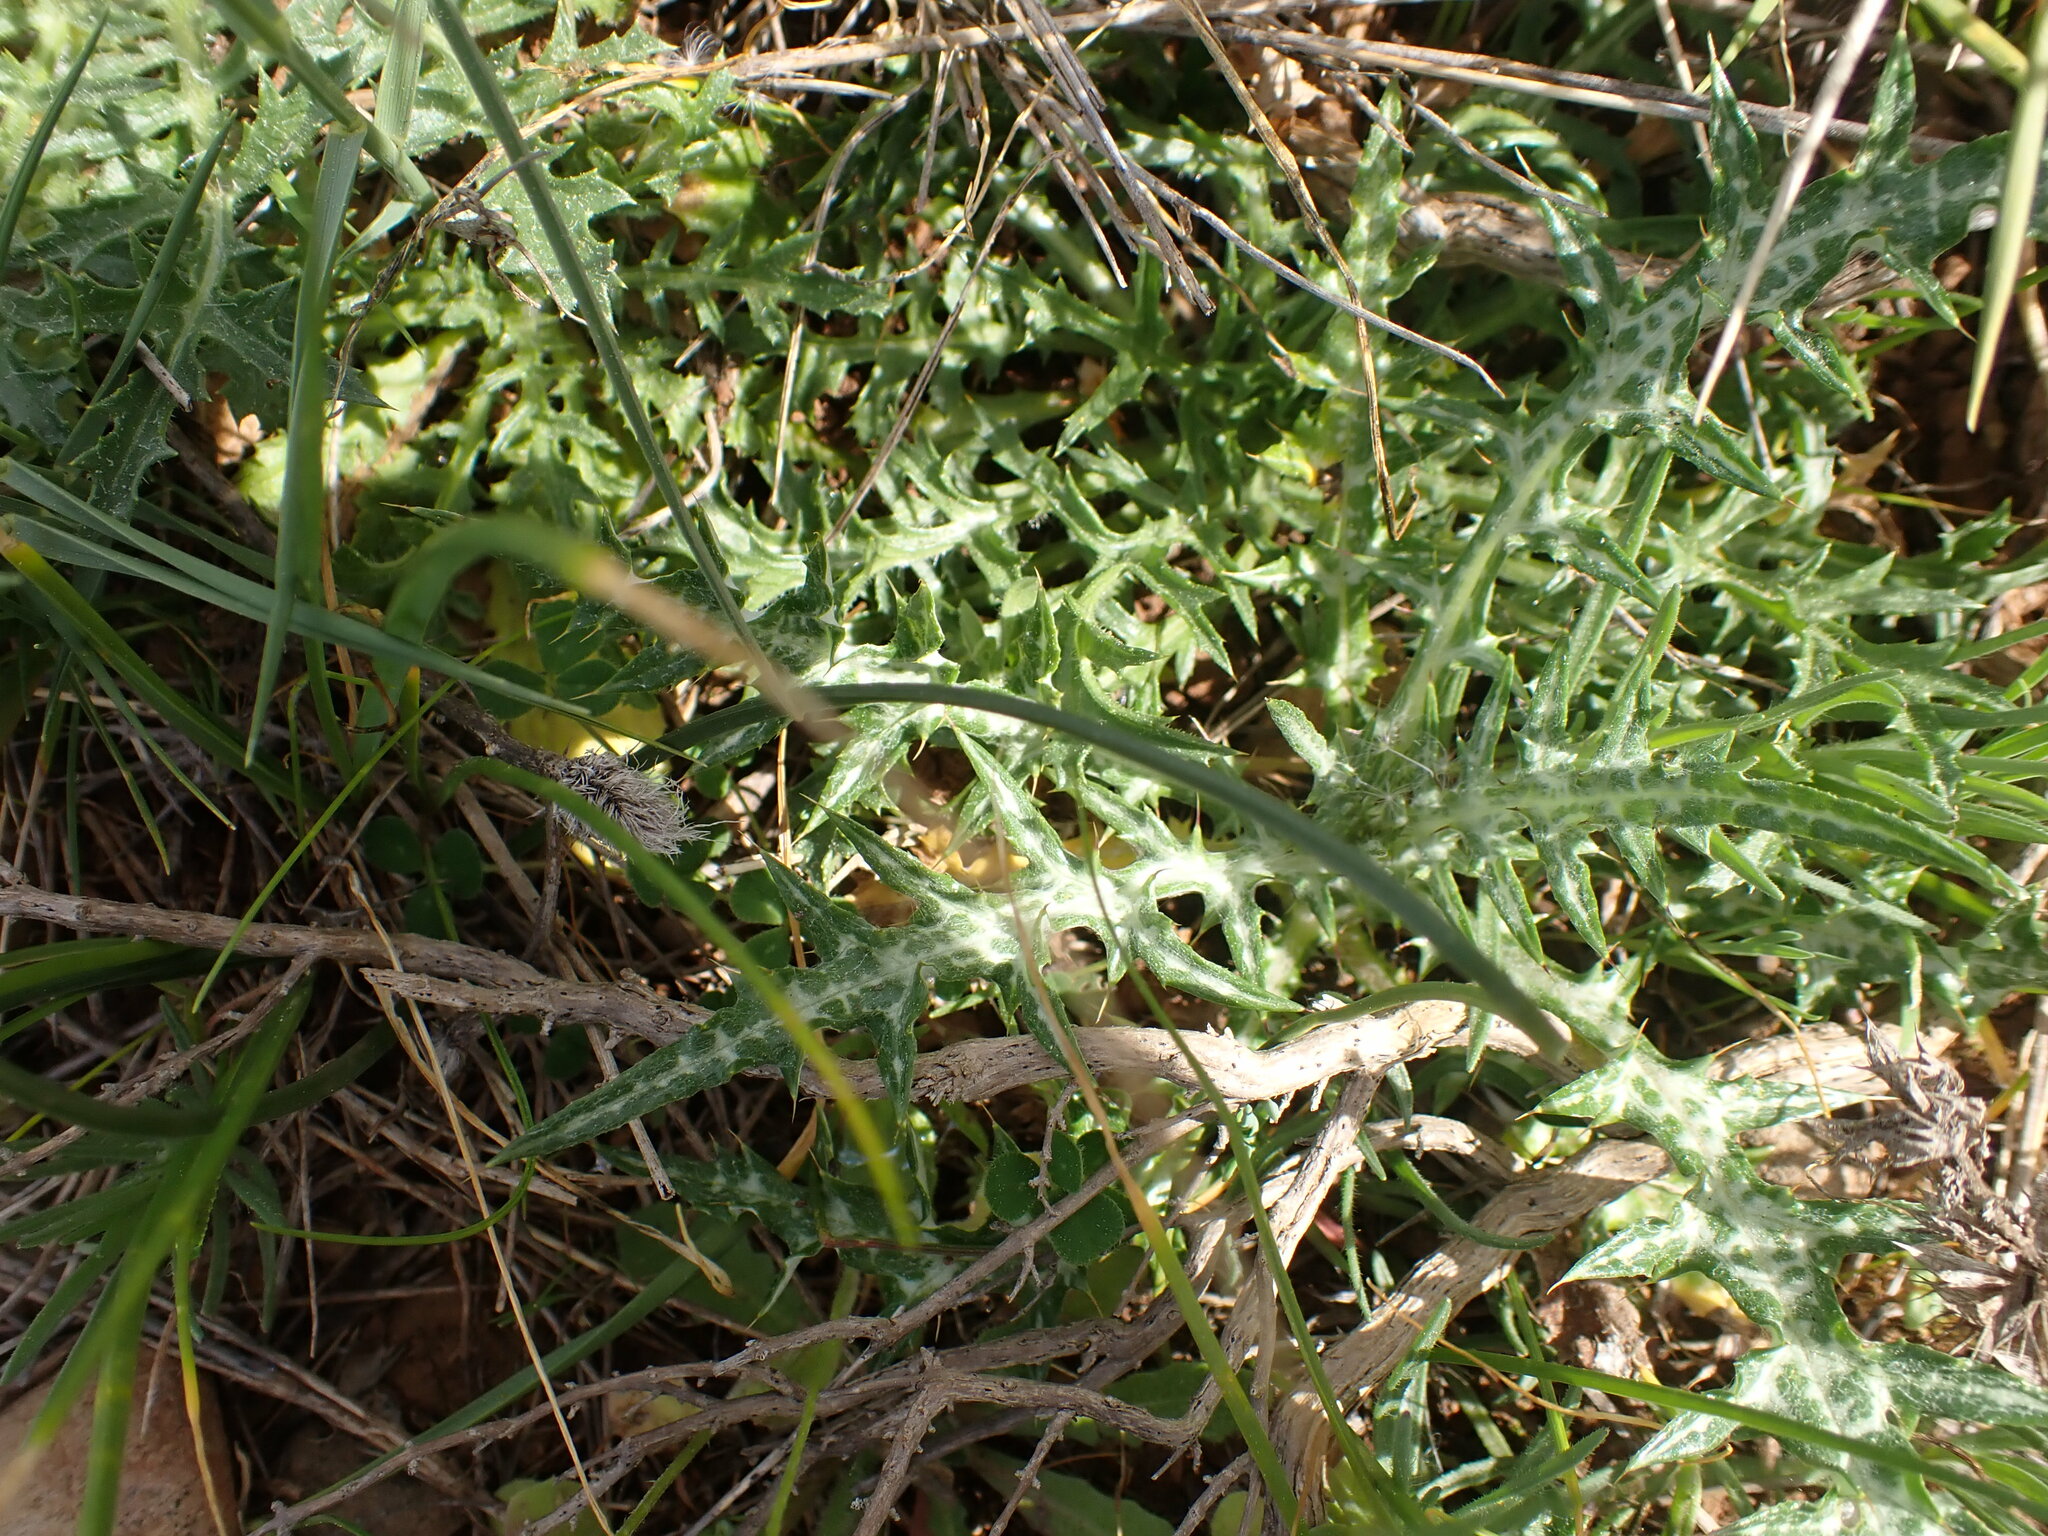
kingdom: Plantae
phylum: Tracheophyta
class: Magnoliopsida
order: Asterales
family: Asteraceae
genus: Galactites
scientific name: Galactites tomentosa
